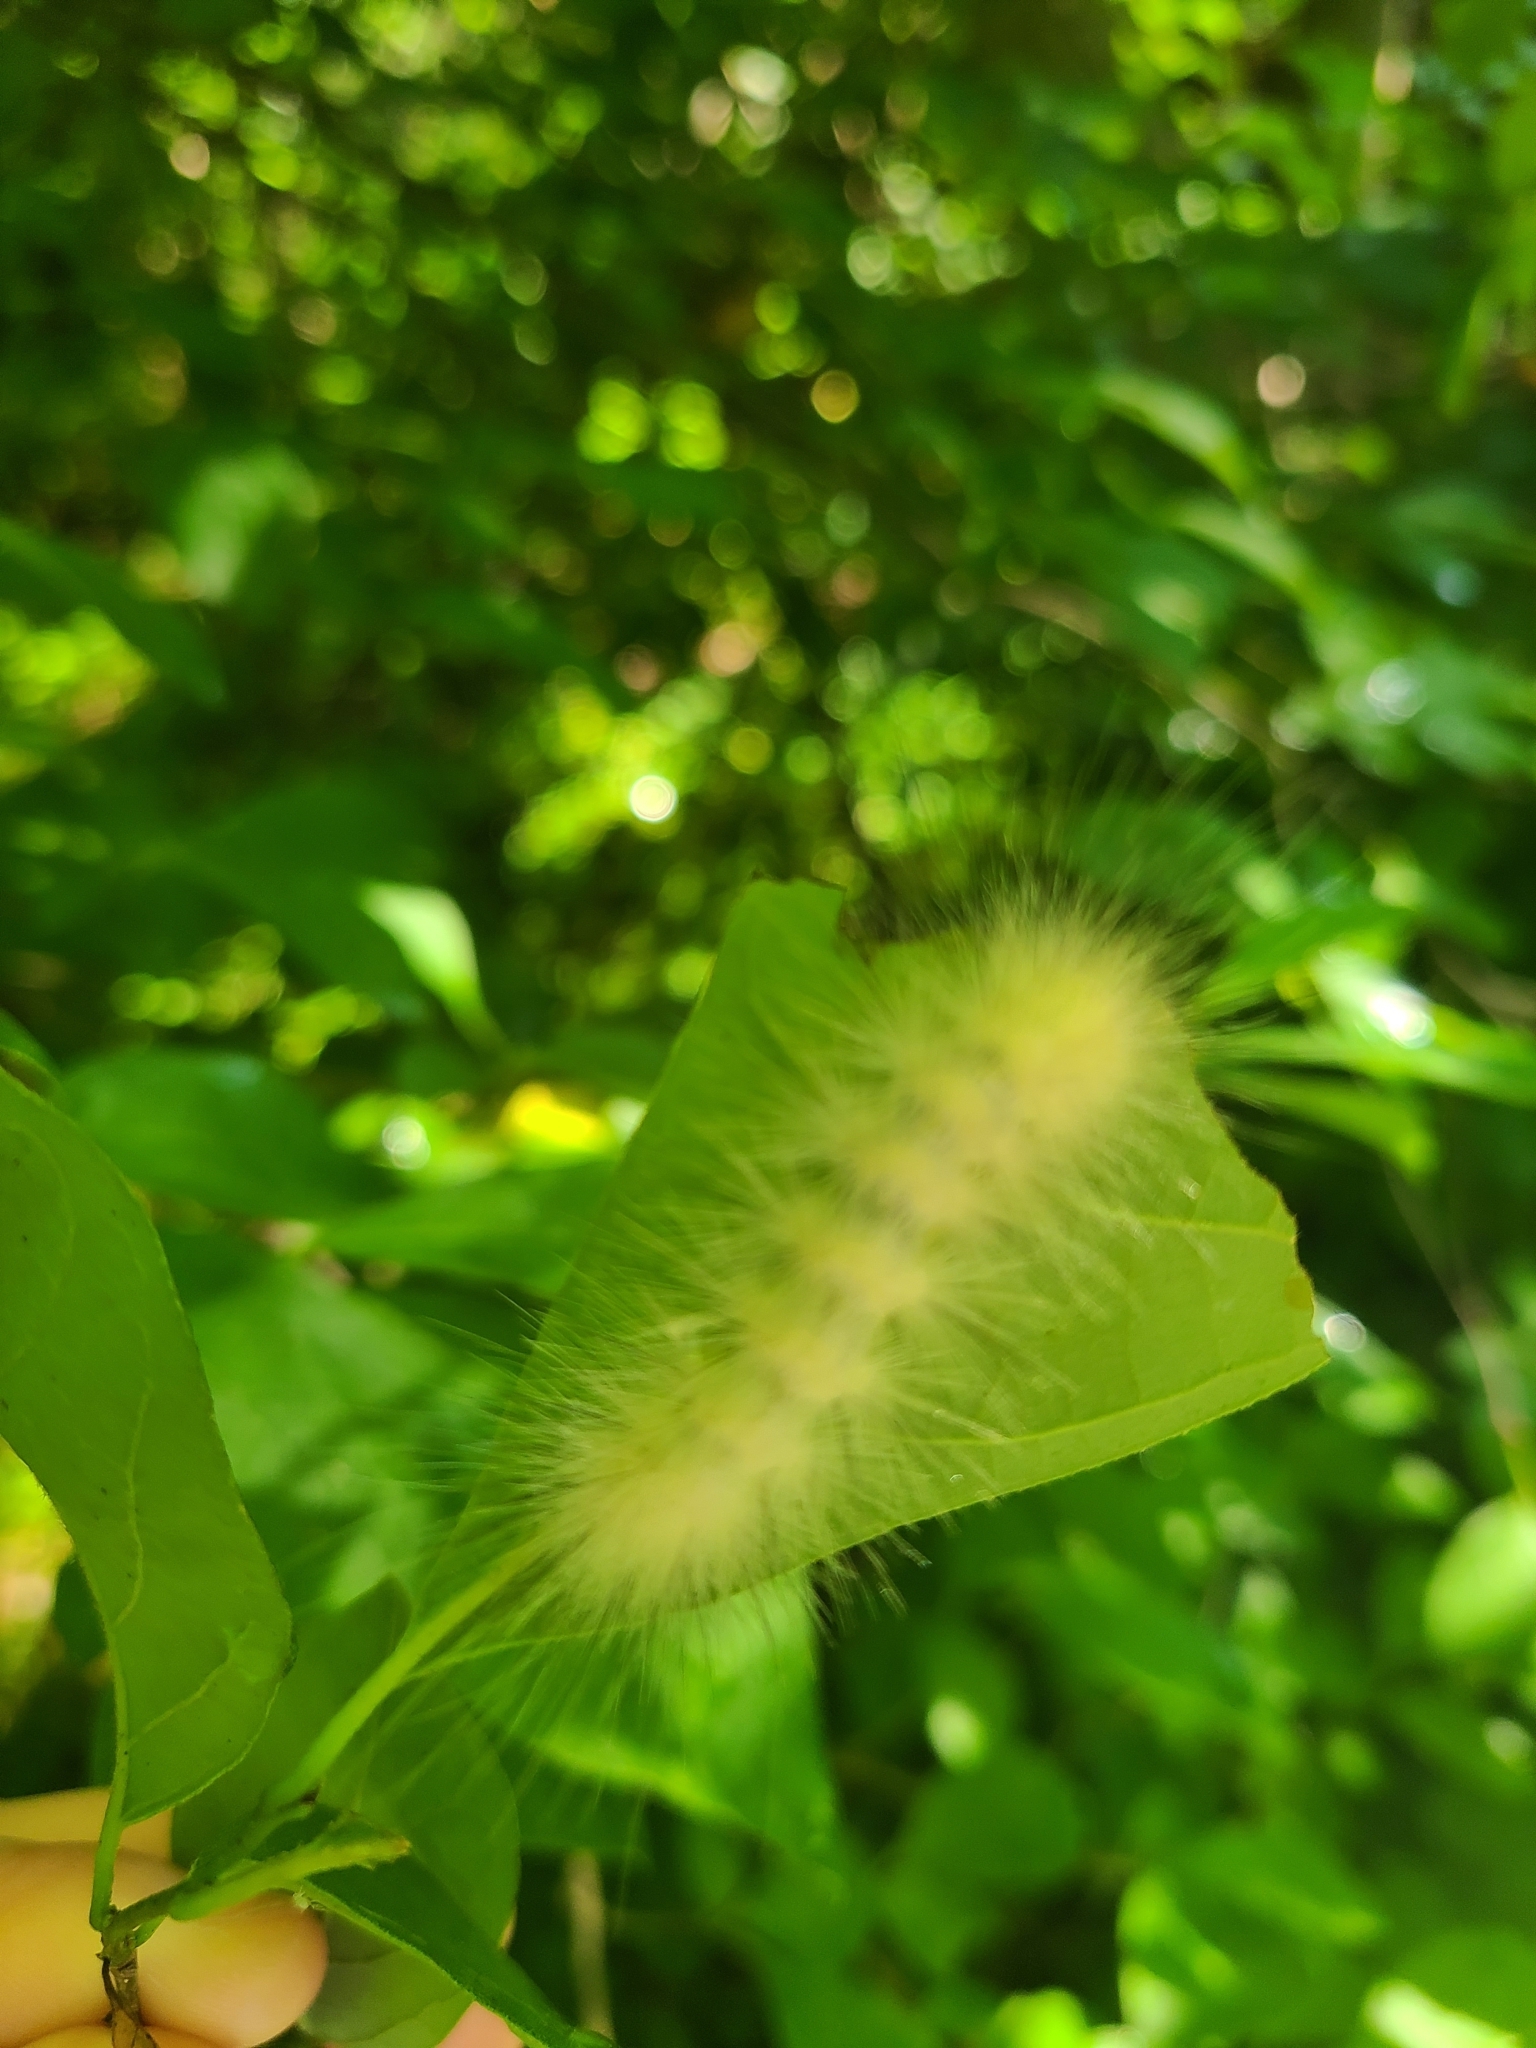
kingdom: Animalia
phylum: Arthropoda
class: Insecta
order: Lepidoptera
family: Erebidae
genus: Spilosoma
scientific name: Spilosoma virginica
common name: Virginia tiger moth
